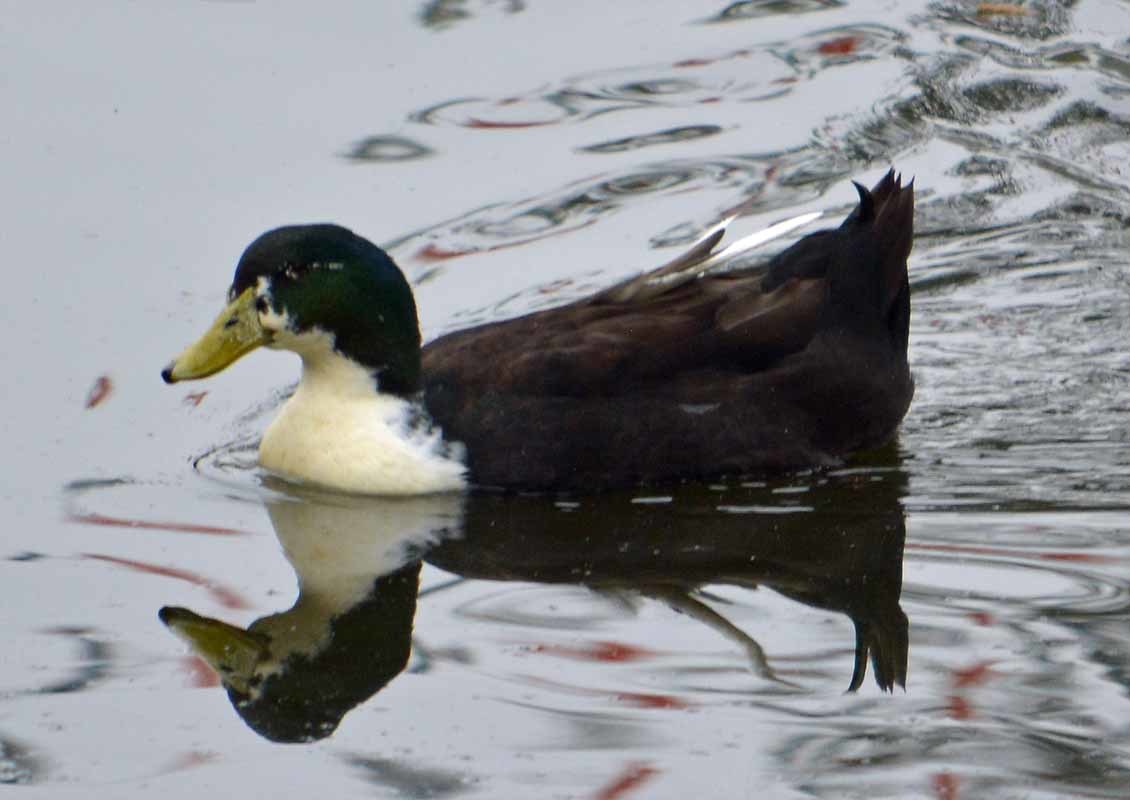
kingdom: Animalia
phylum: Chordata
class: Aves
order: Anseriformes
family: Anatidae
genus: Anas
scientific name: Anas platyrhynchos
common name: Mallard
